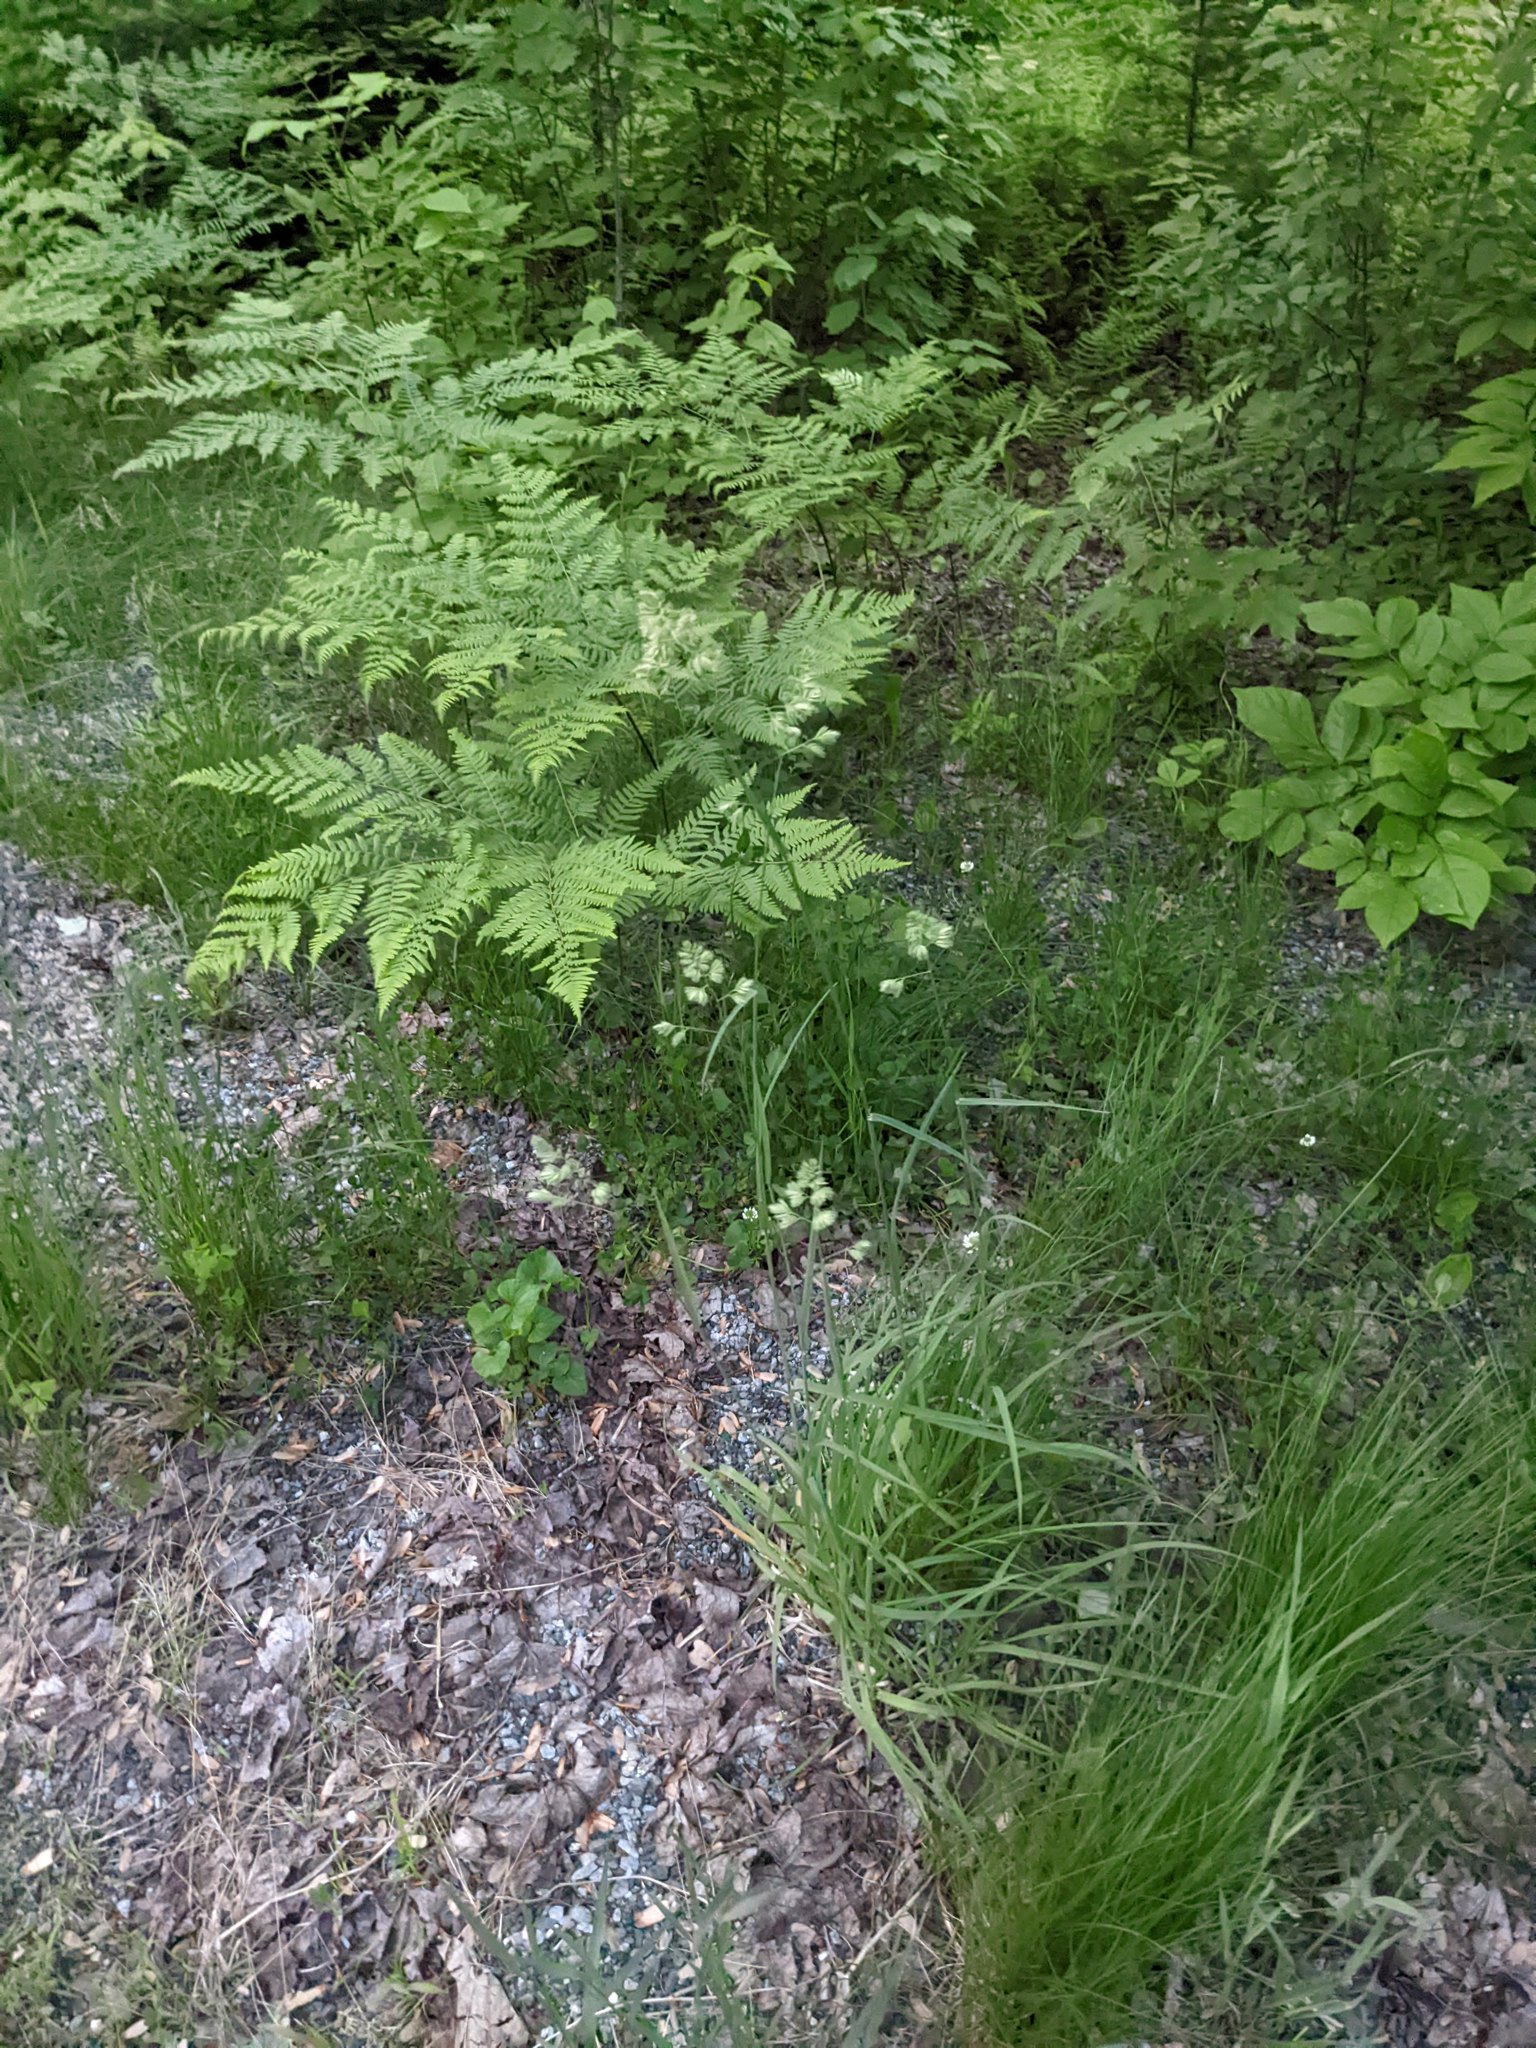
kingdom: Plantae
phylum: Tracheophyta
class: Liliopsida
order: Poales
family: Poaceae
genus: Dactylis
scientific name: Dactylis glomerata
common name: Orchardgrass
